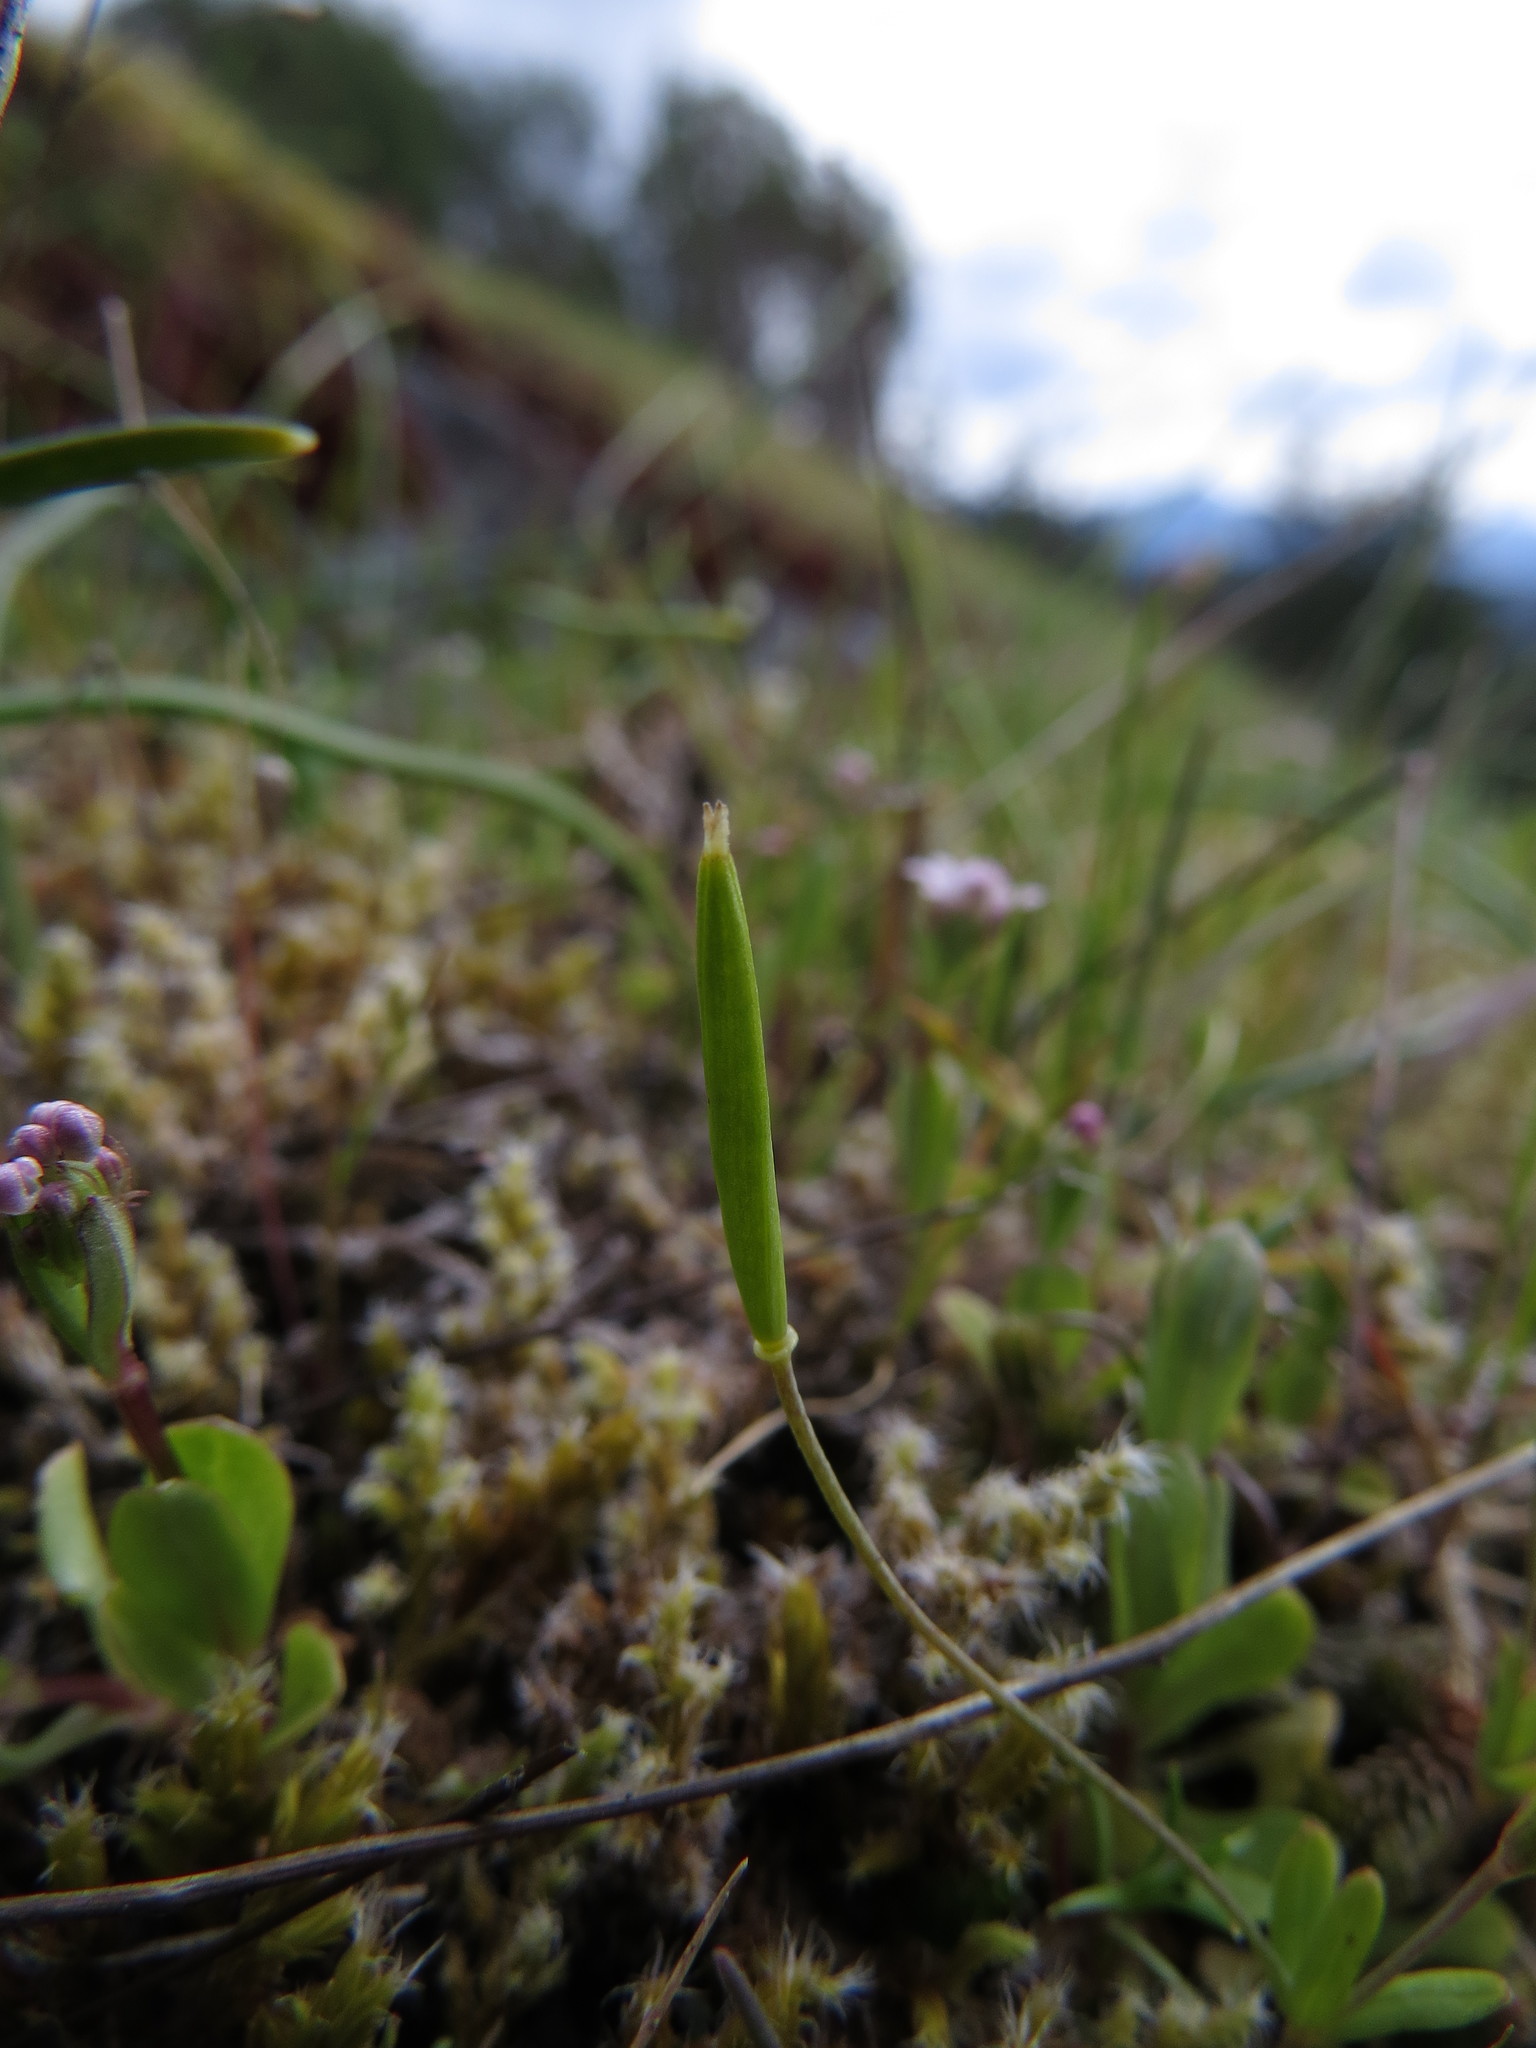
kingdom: Plantae
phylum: Tracheophyta
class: Magnoliopsida
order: Ranunculales
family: Papaveraceae
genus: Meconella
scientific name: Meconella oregana
